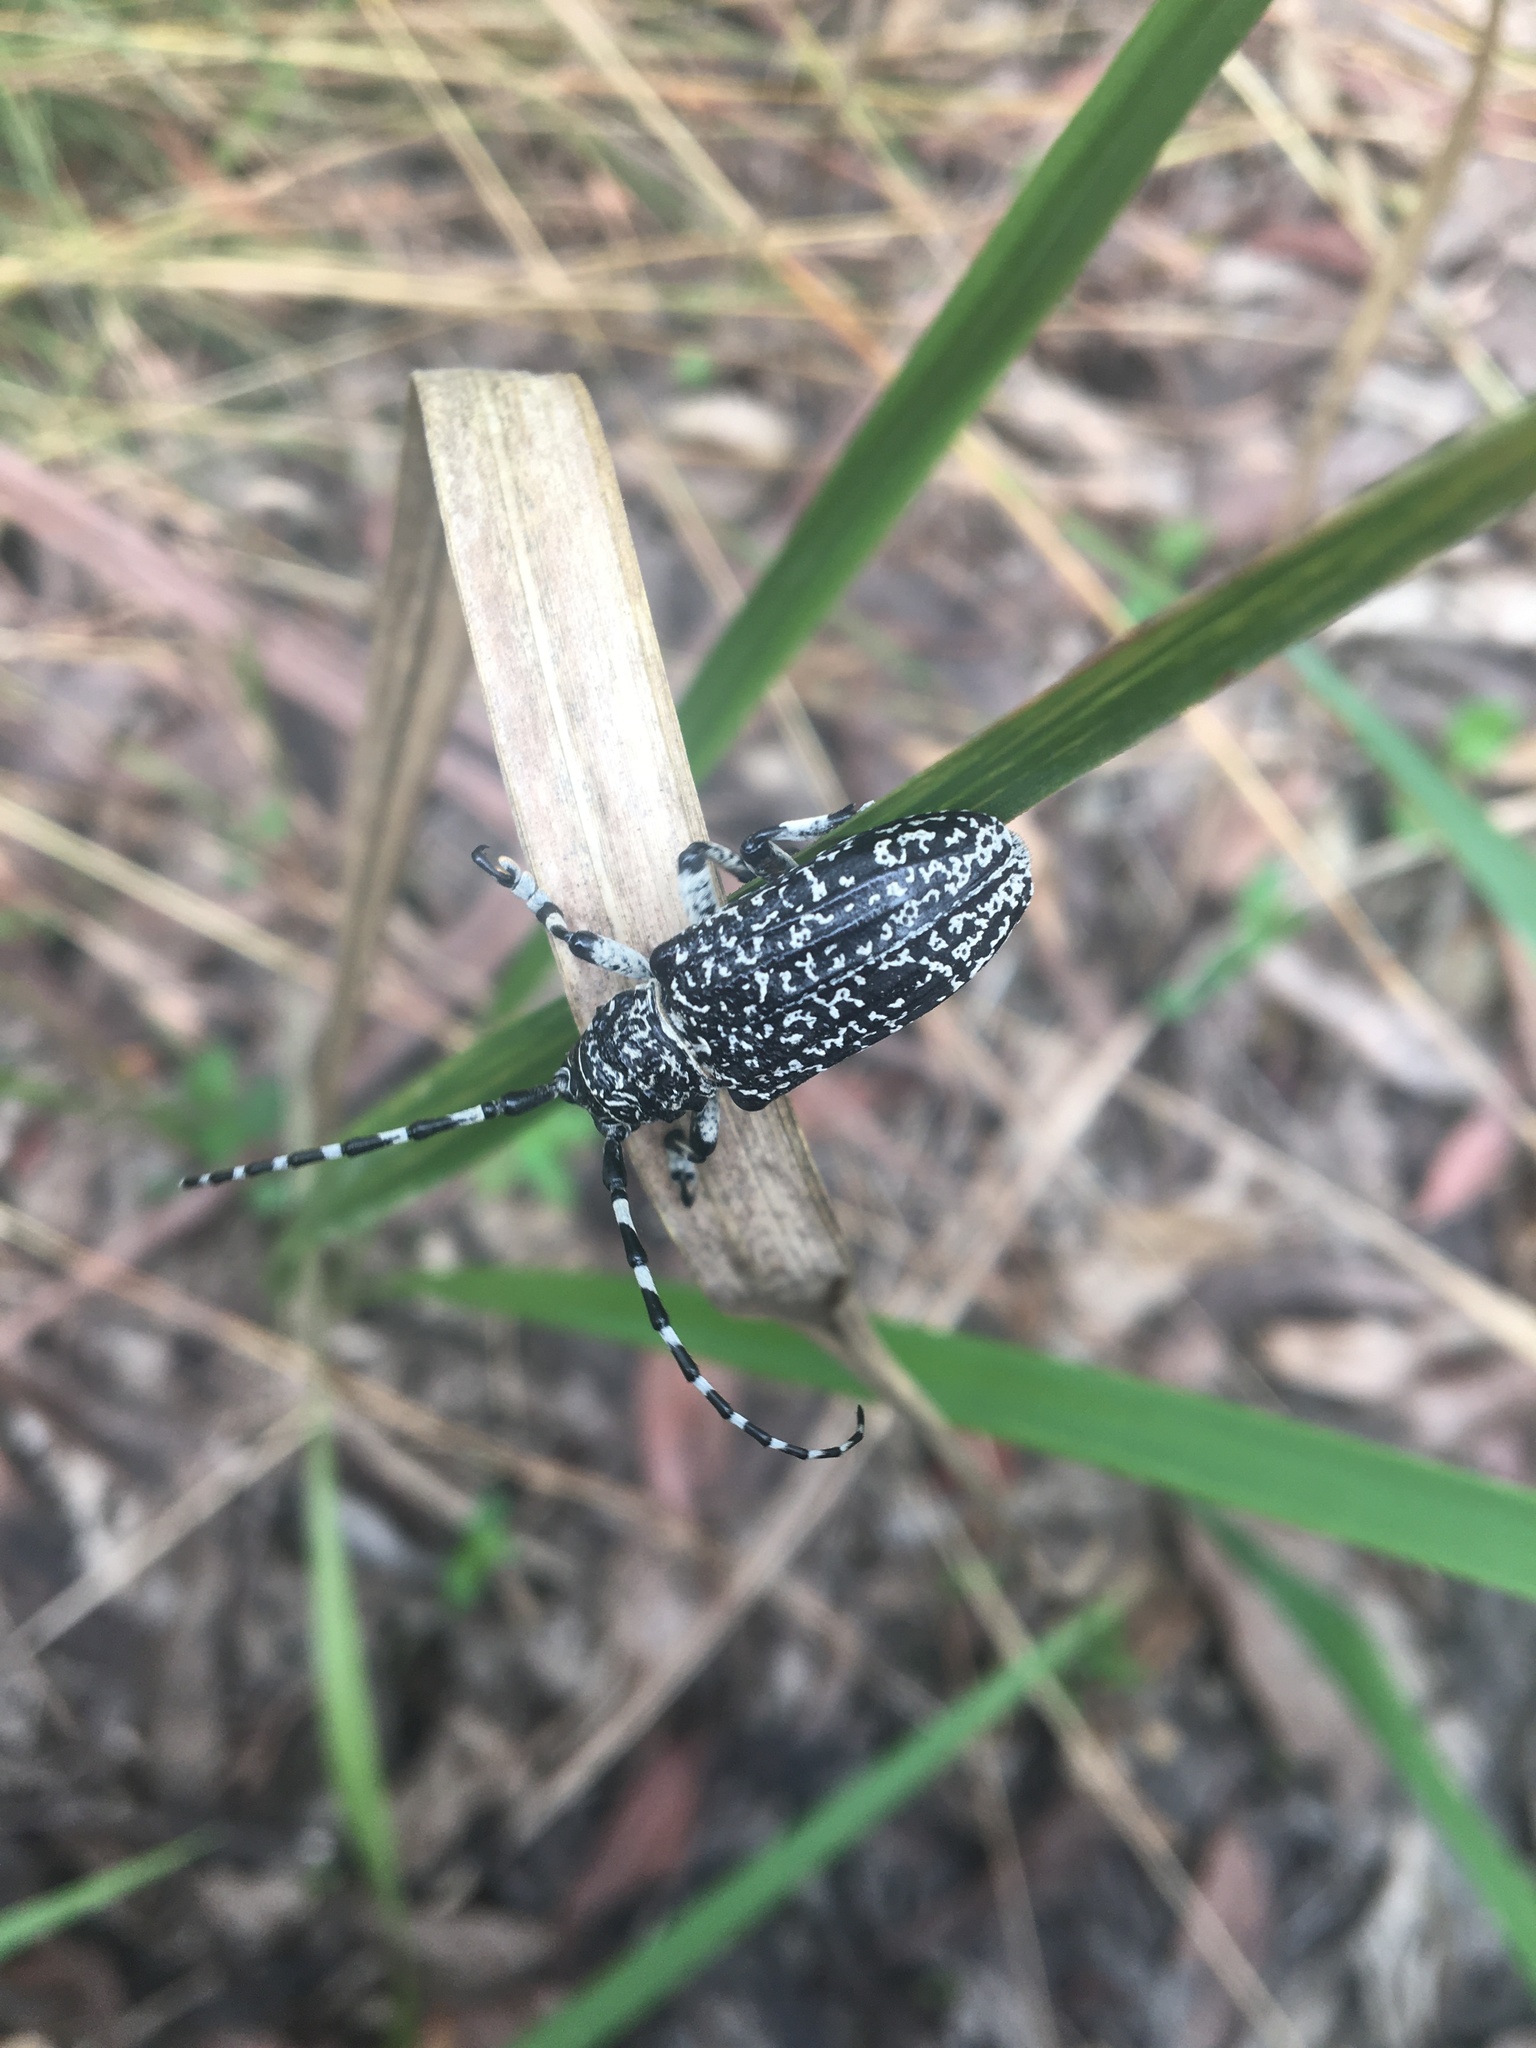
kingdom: Animalia
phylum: Arthropoda
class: Insecta
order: Coleoptera
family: Cerambycidae
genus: Rhytiphora
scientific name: Rhytiphora vermicularia
